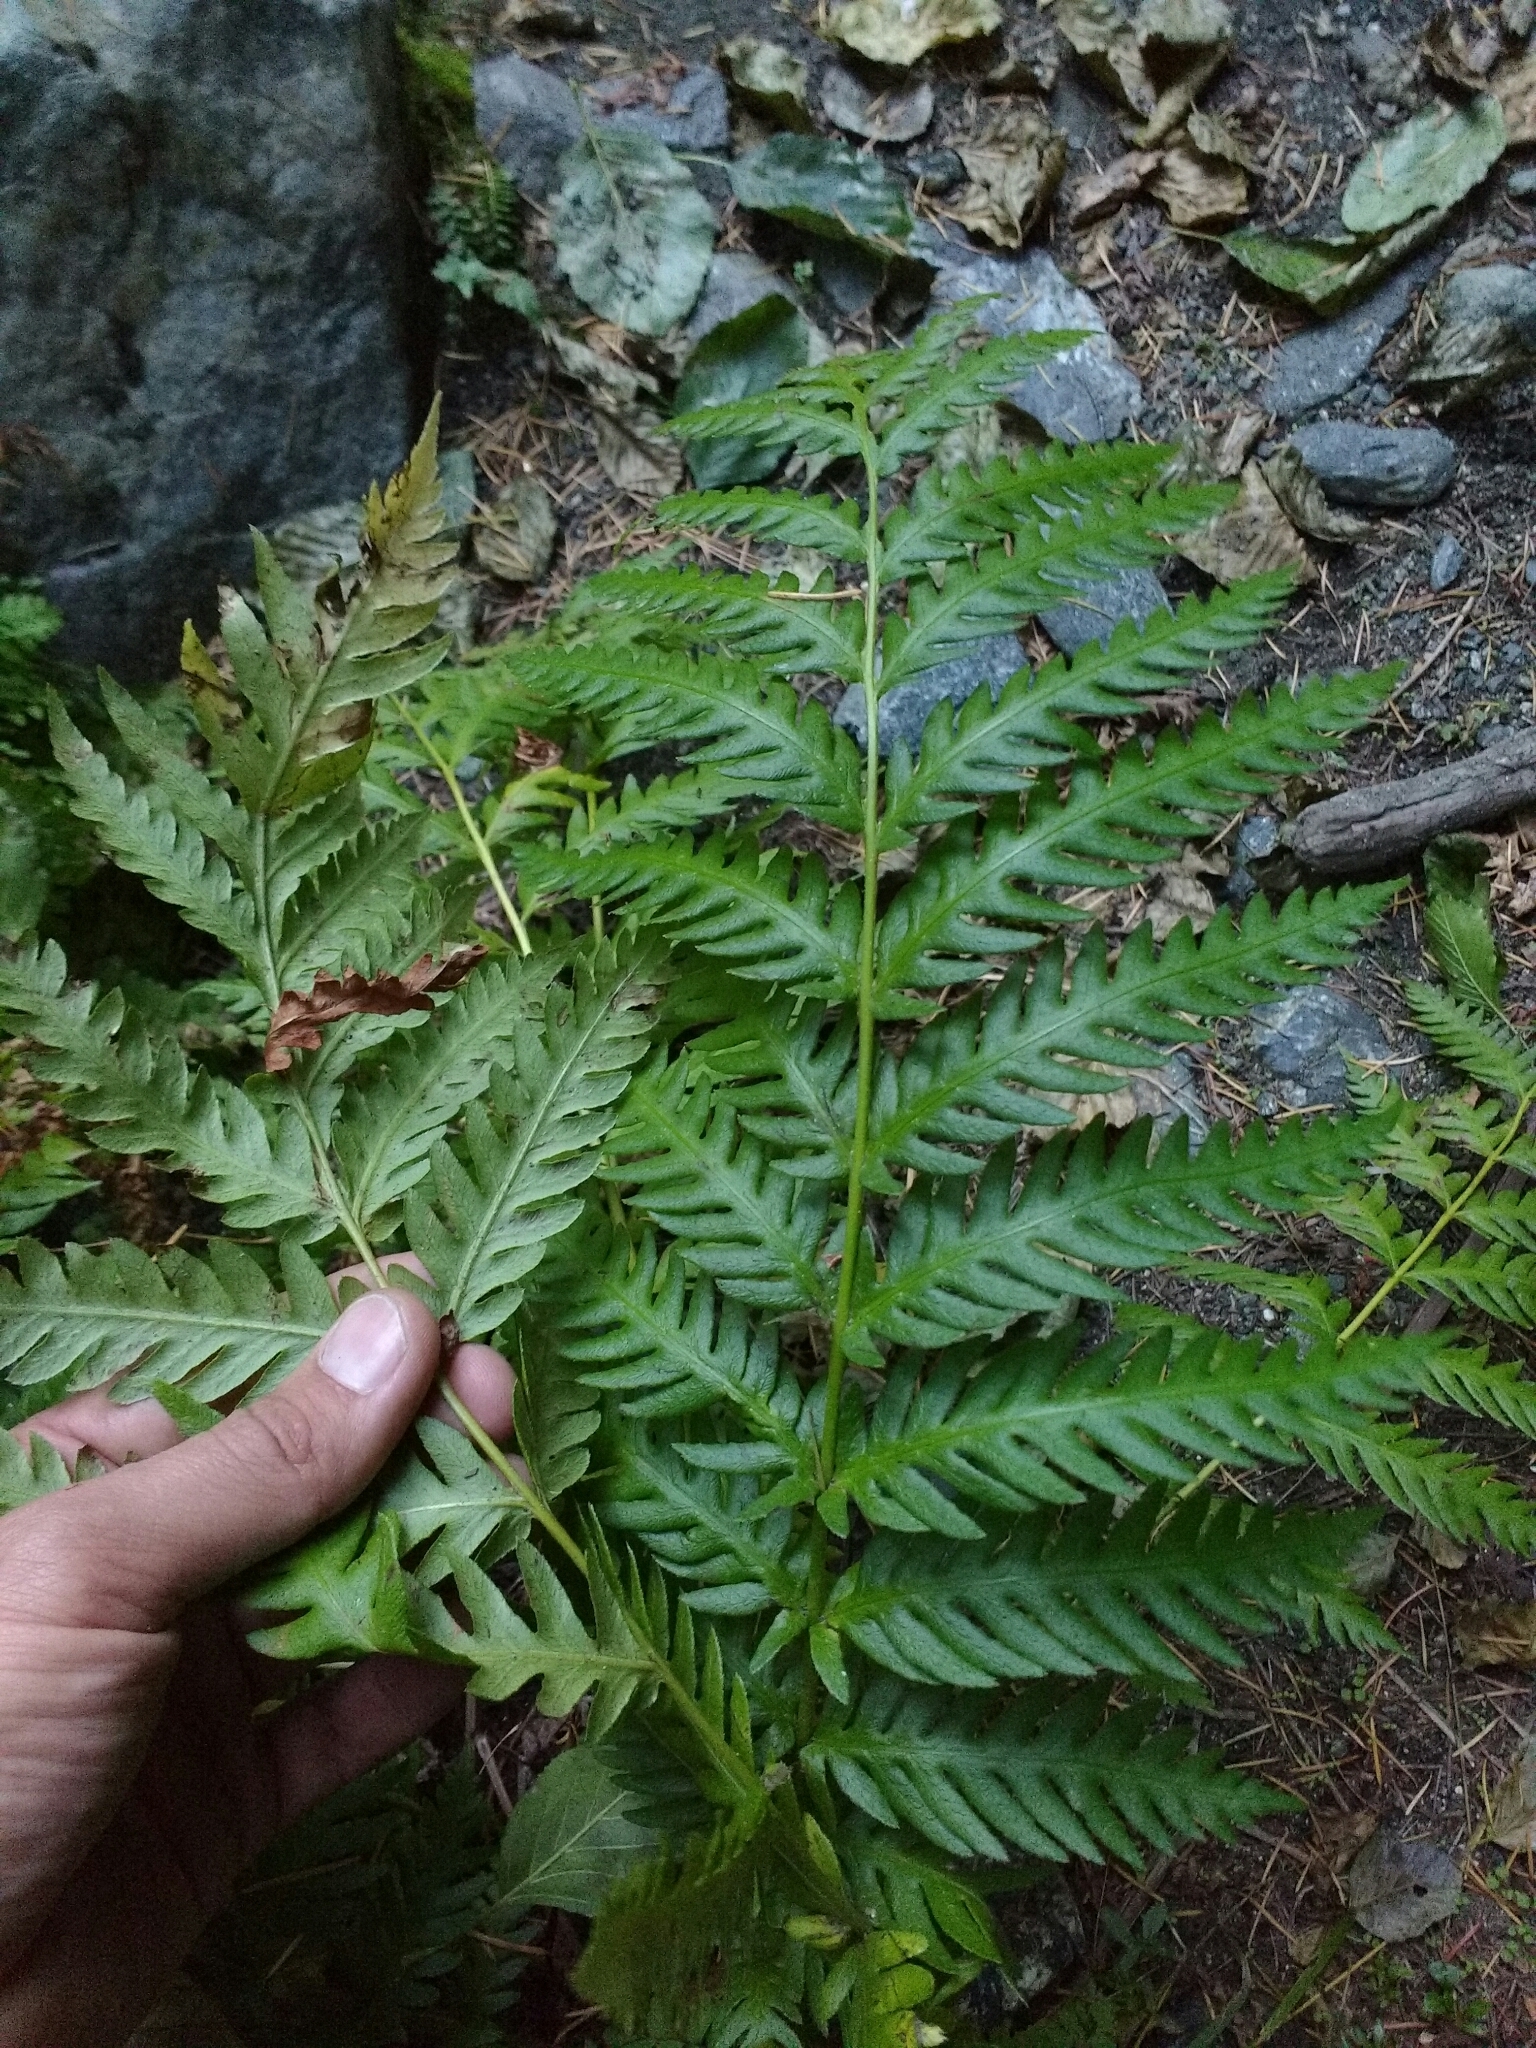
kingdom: Plantae
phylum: Tracheophyta
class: Polypodiopsida
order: Polypodiales
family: Blechnaceae
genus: Woodwardia
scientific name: Woodwardia fimbriata
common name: Giant chain fern
